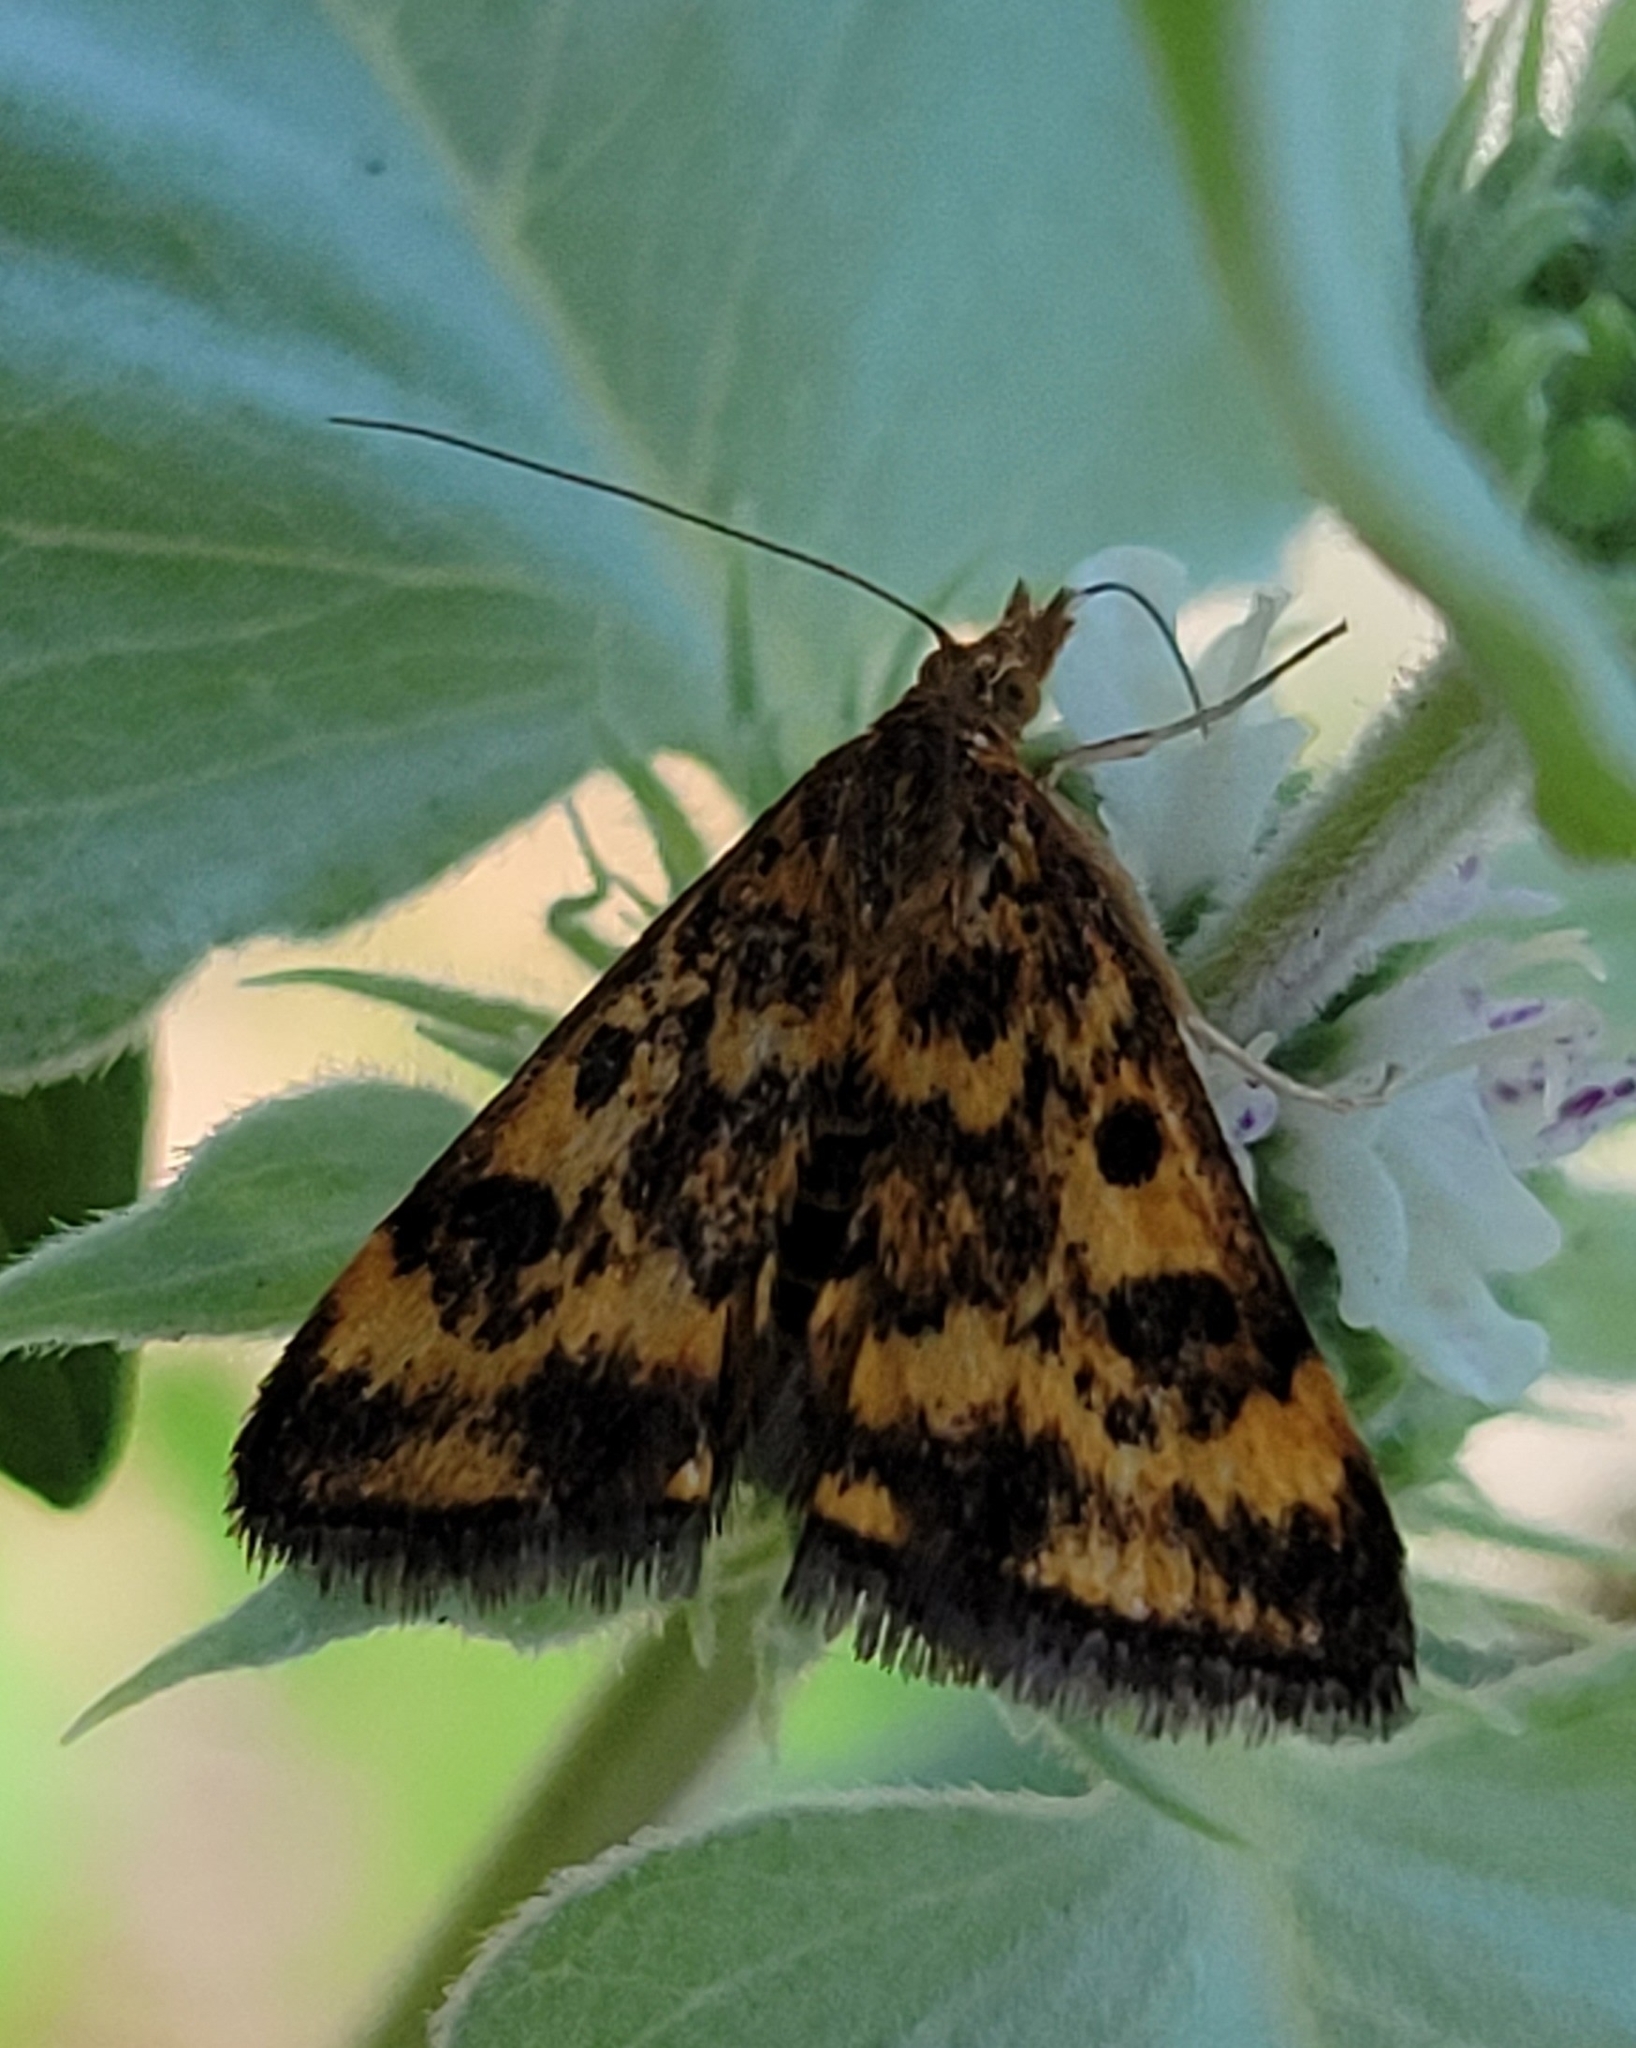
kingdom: Animalia
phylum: Arthropoda
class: Insecta
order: Lepidoptera
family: Crambidae
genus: Pyrausta
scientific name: Pyrausta subsequalis
